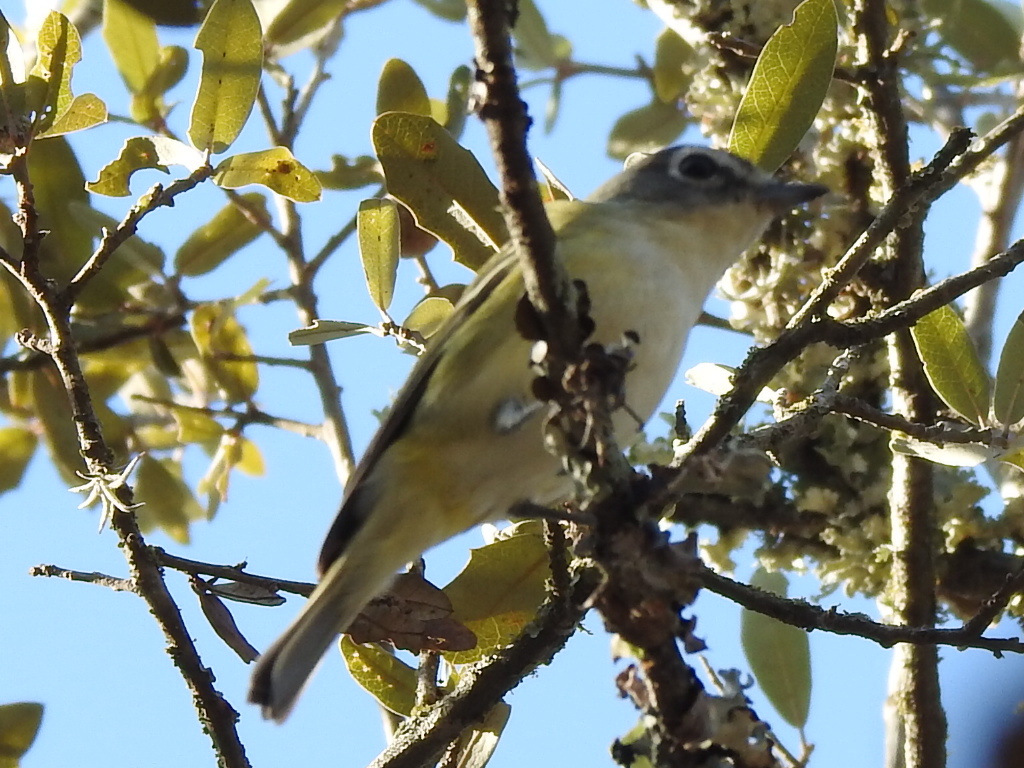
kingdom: Animalia
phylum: Chordata
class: Aves
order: Passeriformes
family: Vireonidae
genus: Vireo
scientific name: Vireo solitarius
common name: Blue-headed vireo
